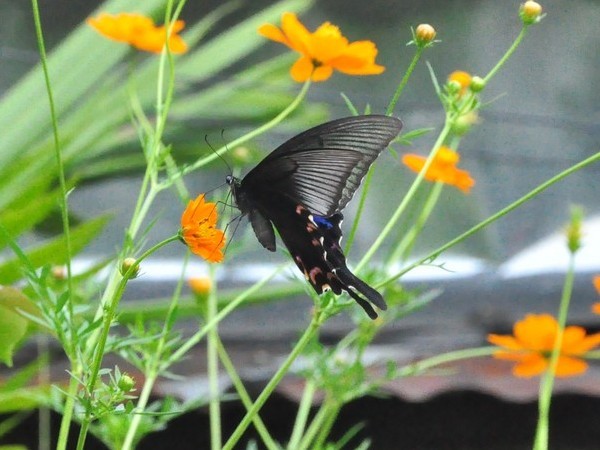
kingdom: Animalia
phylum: Arthropoda
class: Insecta
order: Lepidoptera
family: Papilionidae
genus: Papilio
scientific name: Papilio bianor
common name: Common peacock
